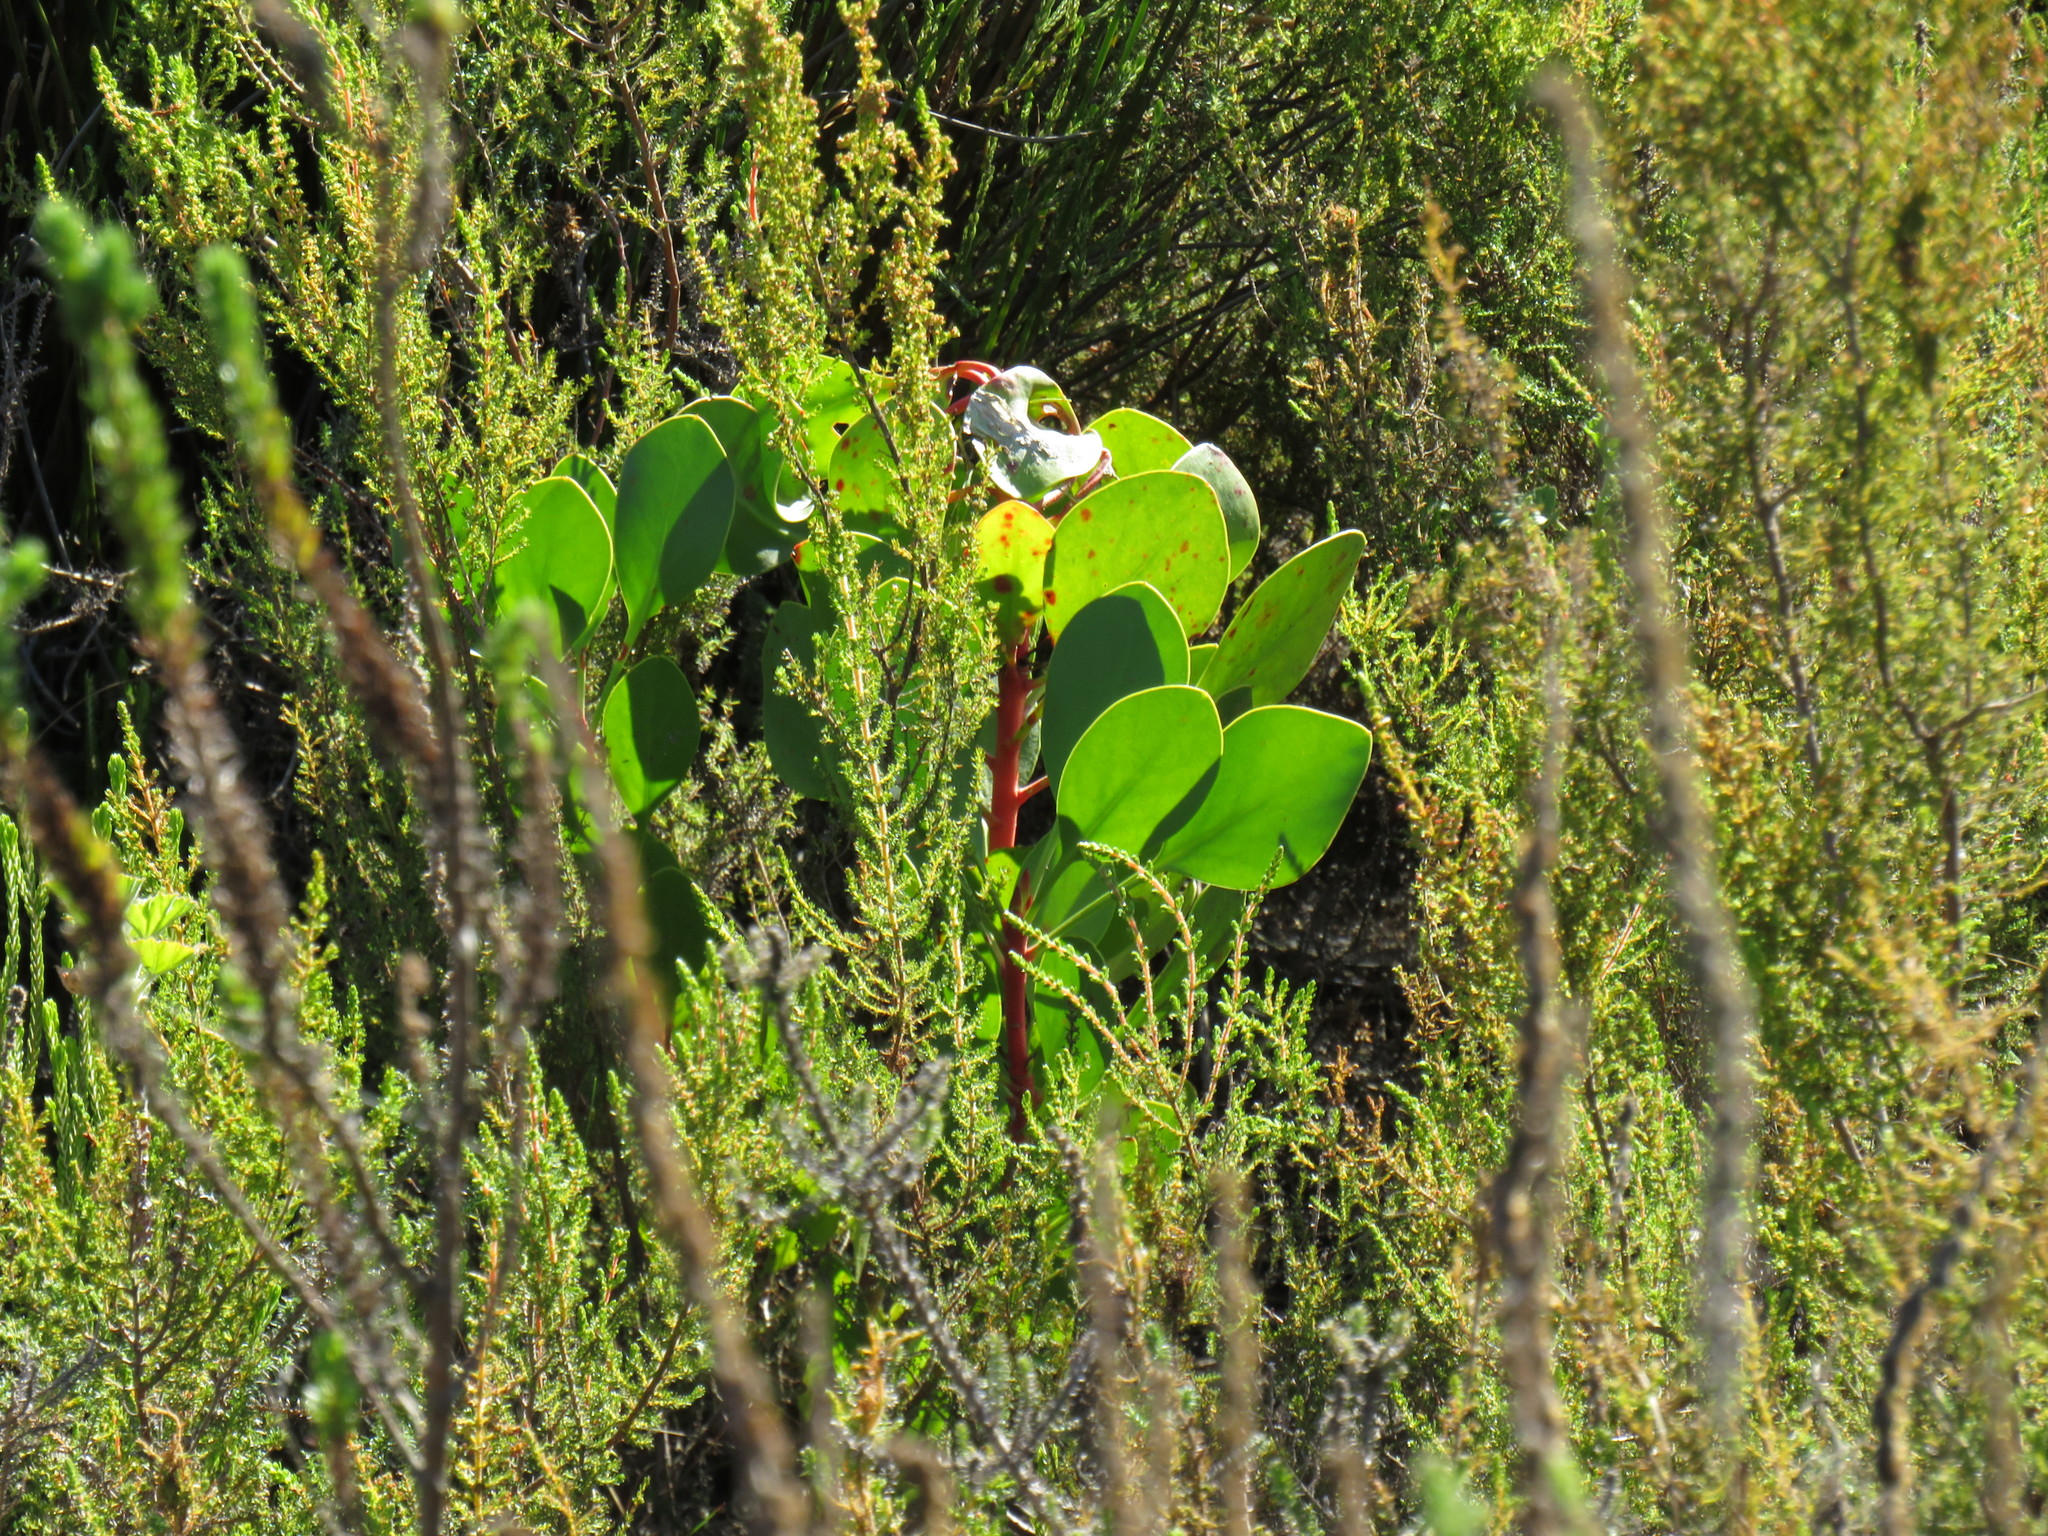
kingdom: Plantae
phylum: Tracheophyta
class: Magnoliopsida
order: Proteales
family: Proteaceae
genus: Protea
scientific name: Protea cynaroides
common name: King protea
